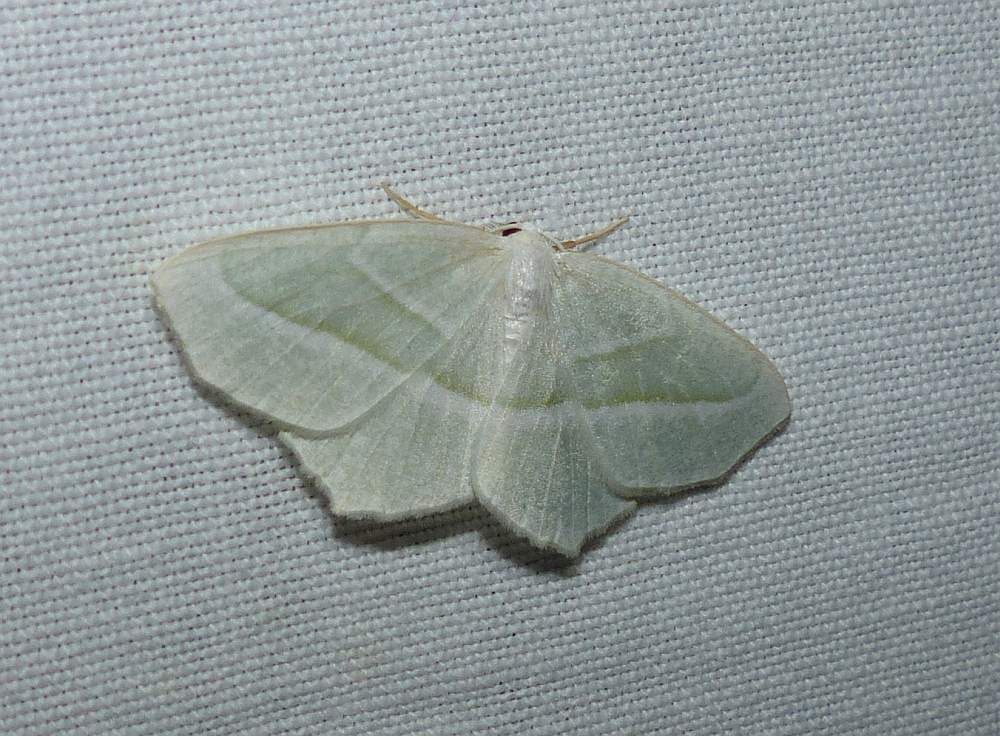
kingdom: Animalia
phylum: Arthropoda
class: Insecta
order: Lepidoptera
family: Geometridae
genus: Campaea
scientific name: Campaea perlata
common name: Fringed looper
